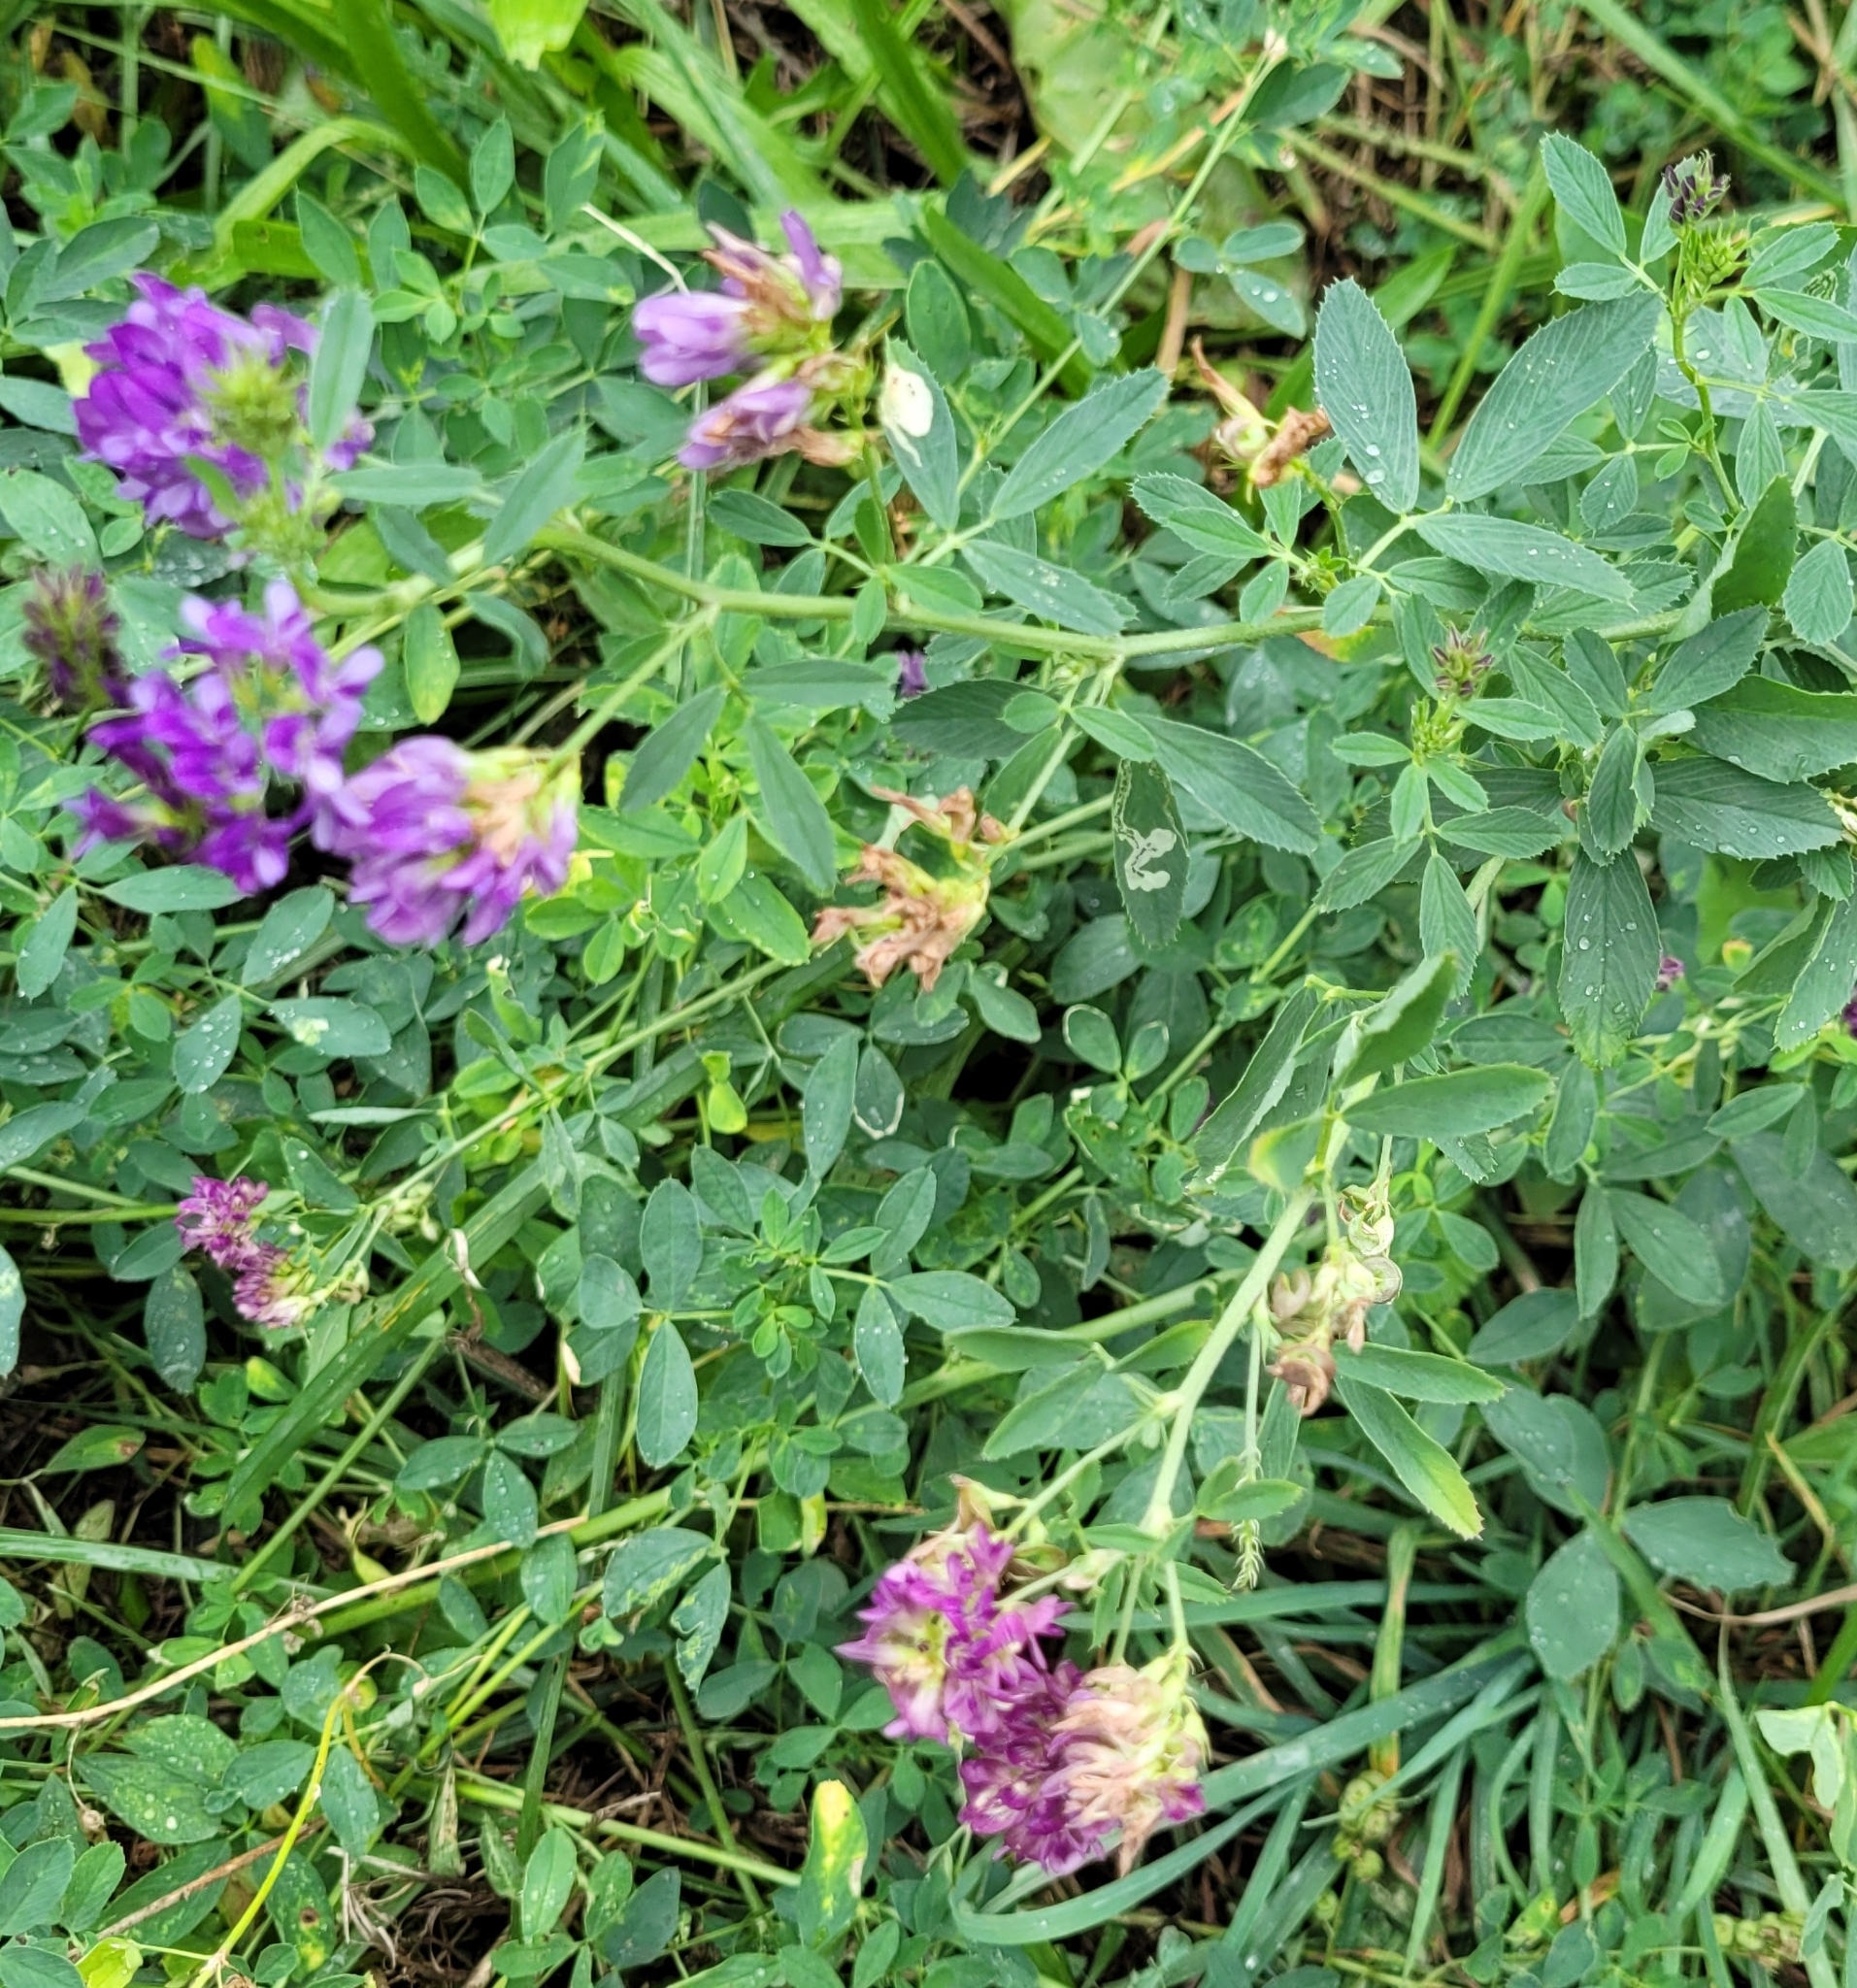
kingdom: Plantae
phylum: Tracheophyta
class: Magnoliopsida
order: Fabales
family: Fabaceae
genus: Medicago
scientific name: Medicago sativa
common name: Alfalfa
